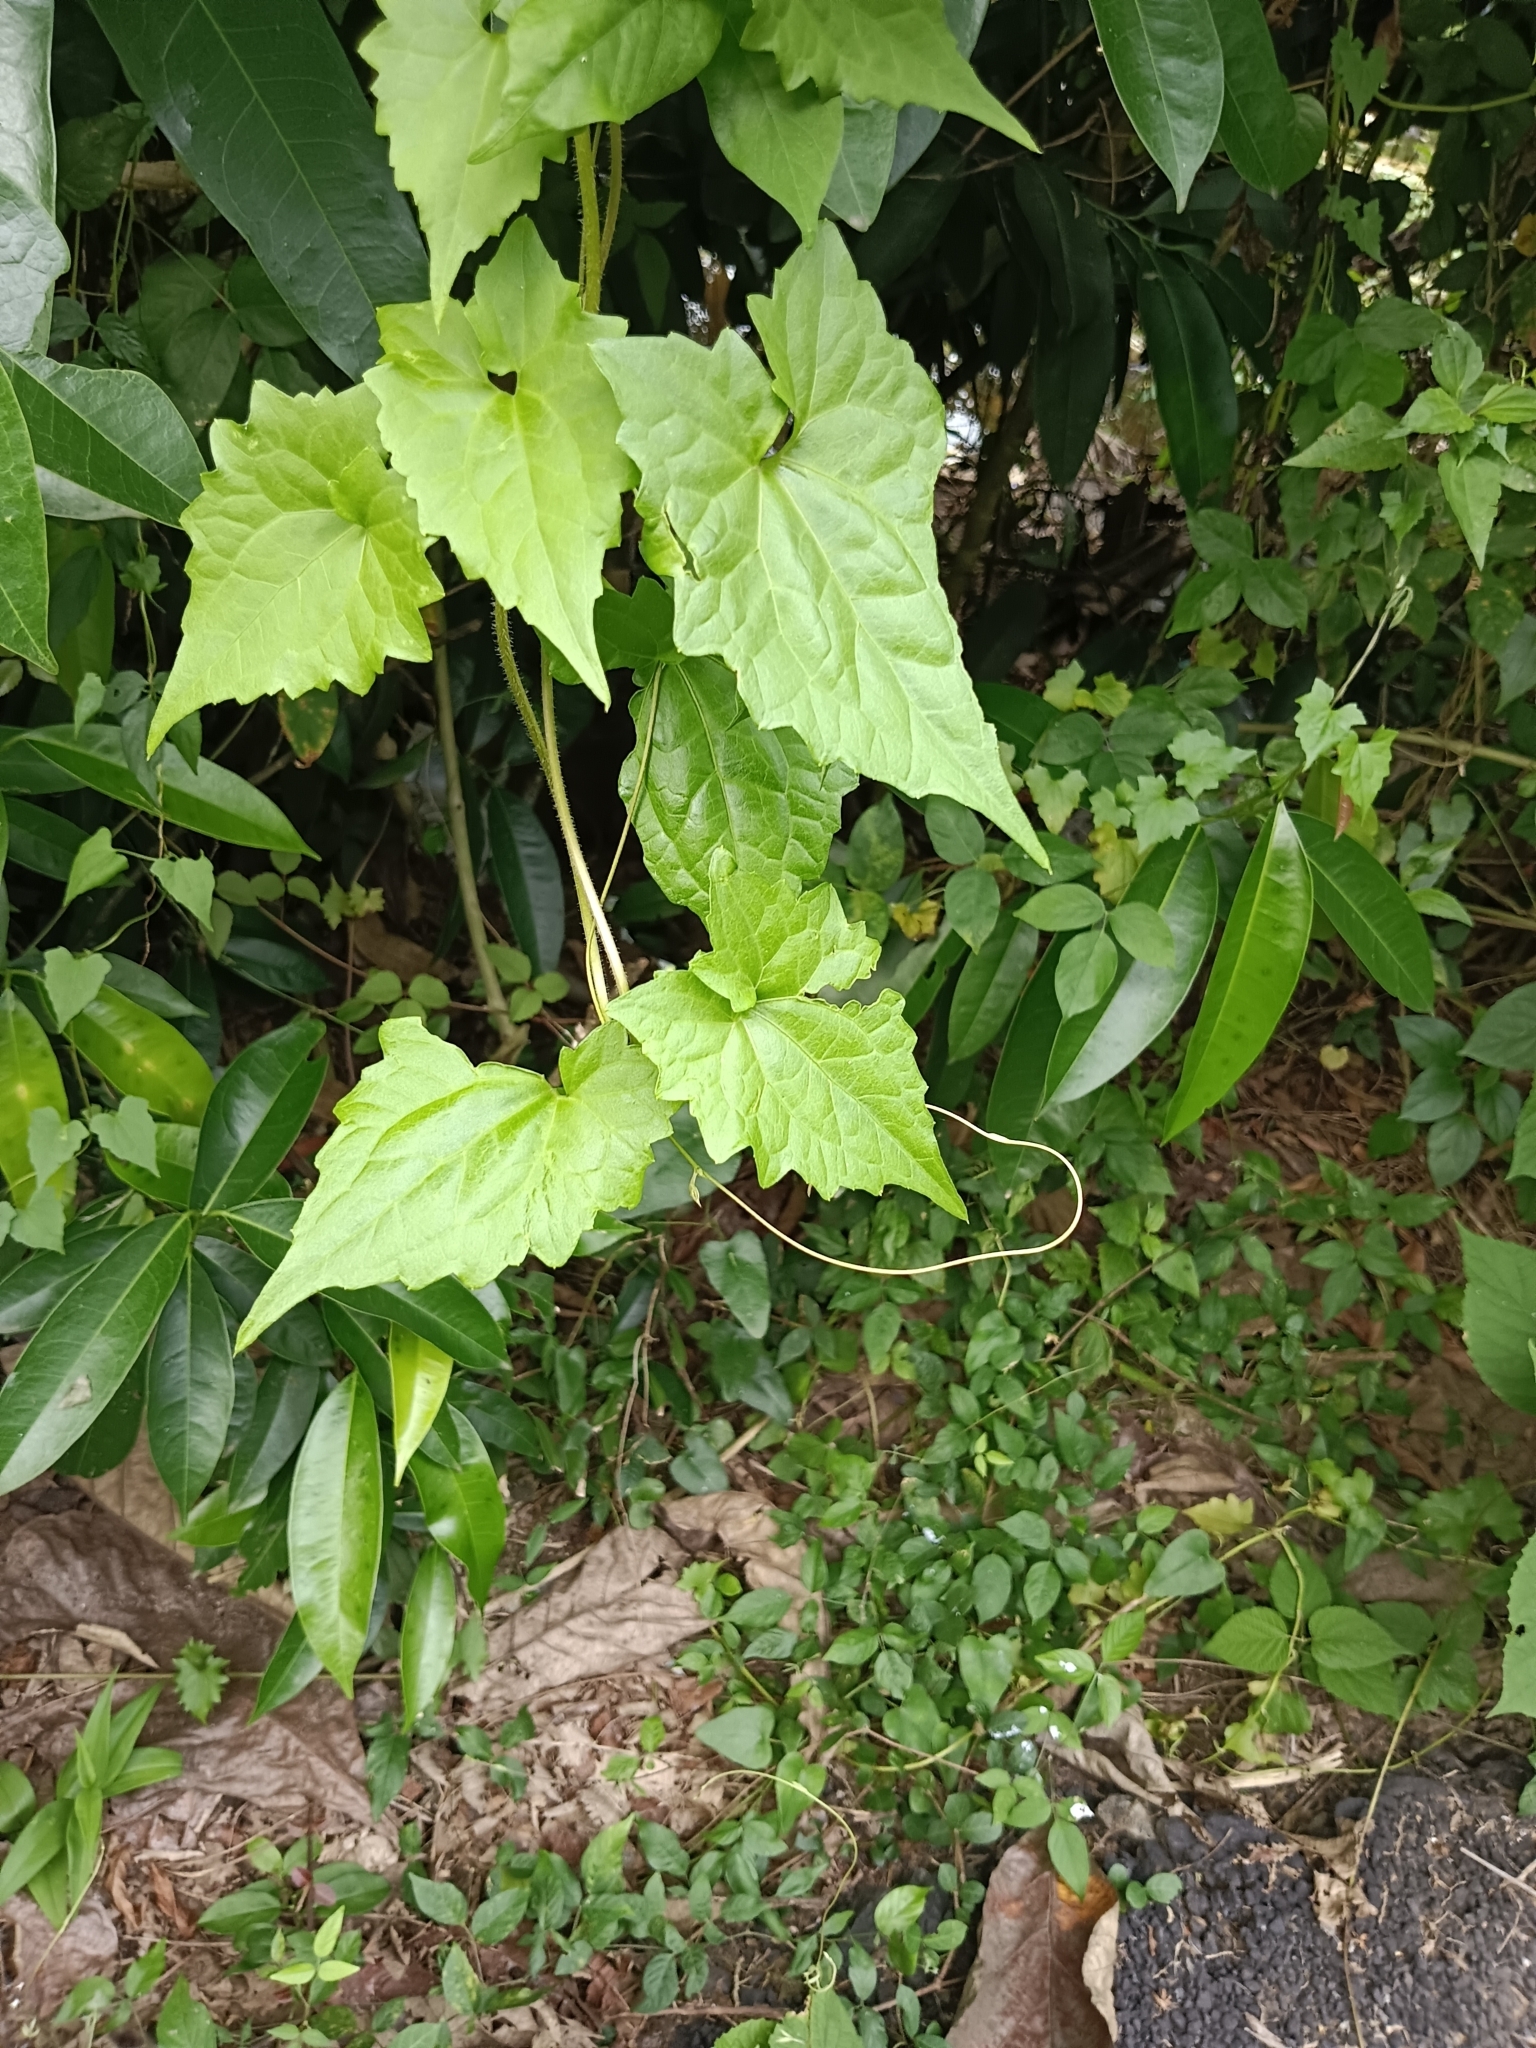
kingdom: Plantae
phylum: Tracheophyta
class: Magnoliopsida
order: Asterales
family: Asteraceae
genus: Mikania
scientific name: Mikania micrantha
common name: Mile-a-minute
